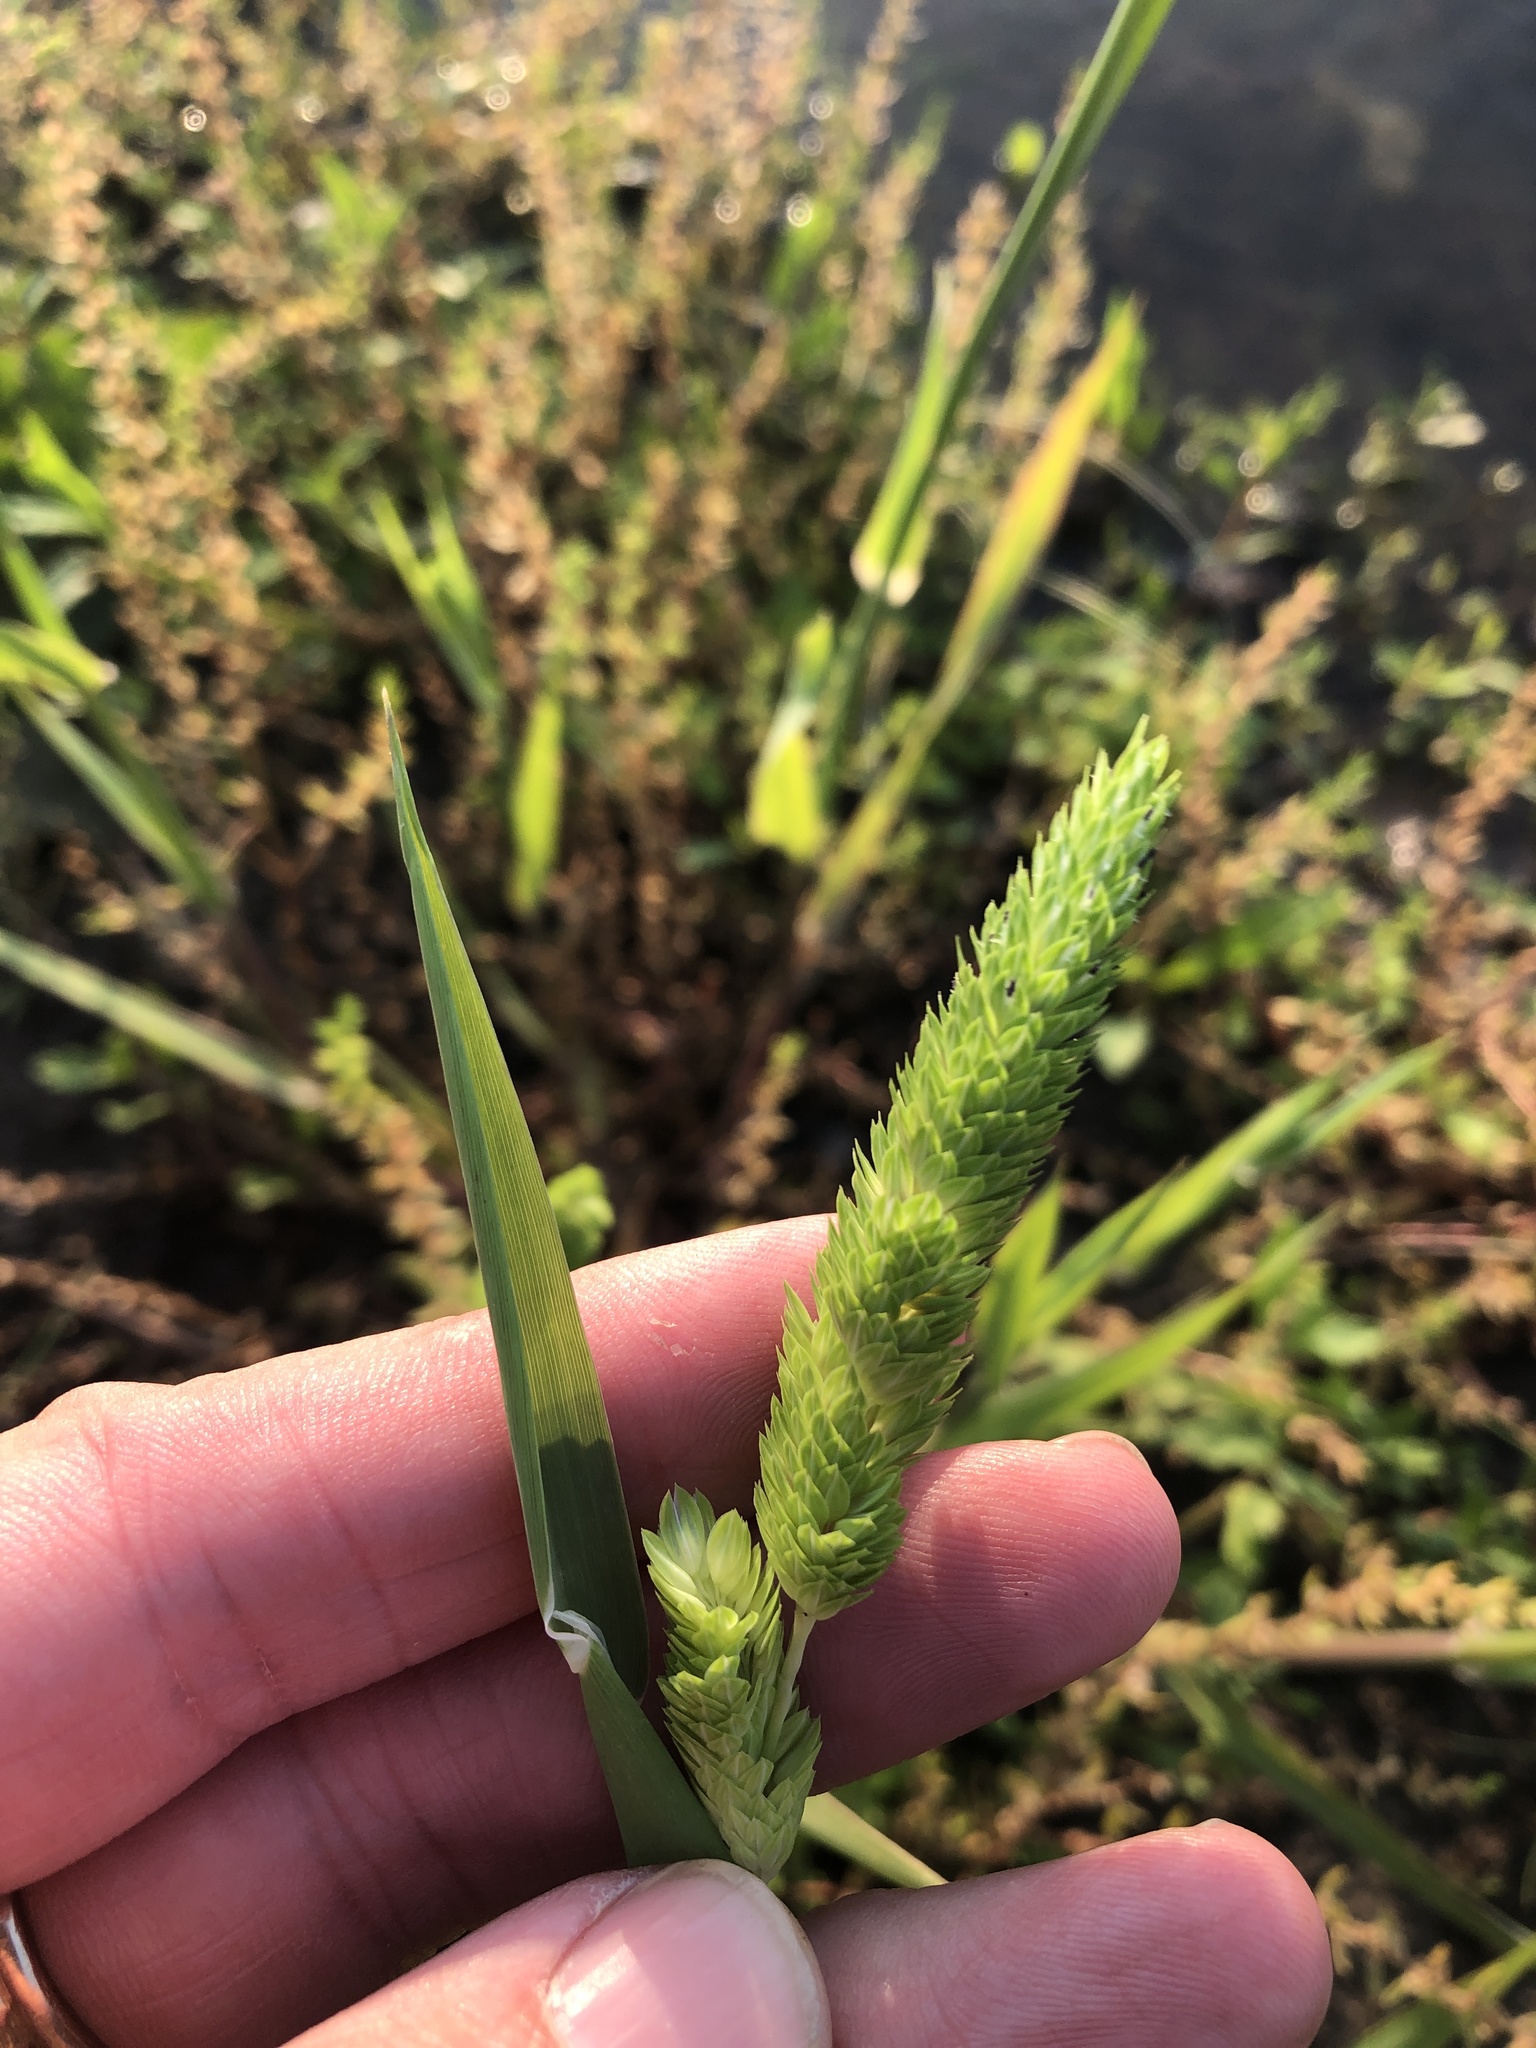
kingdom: Plantae
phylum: Tracheophyta
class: Liliopsida
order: Poales
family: Poaceae
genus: Phalaris
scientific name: Phalaris caroliniana
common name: May grass
